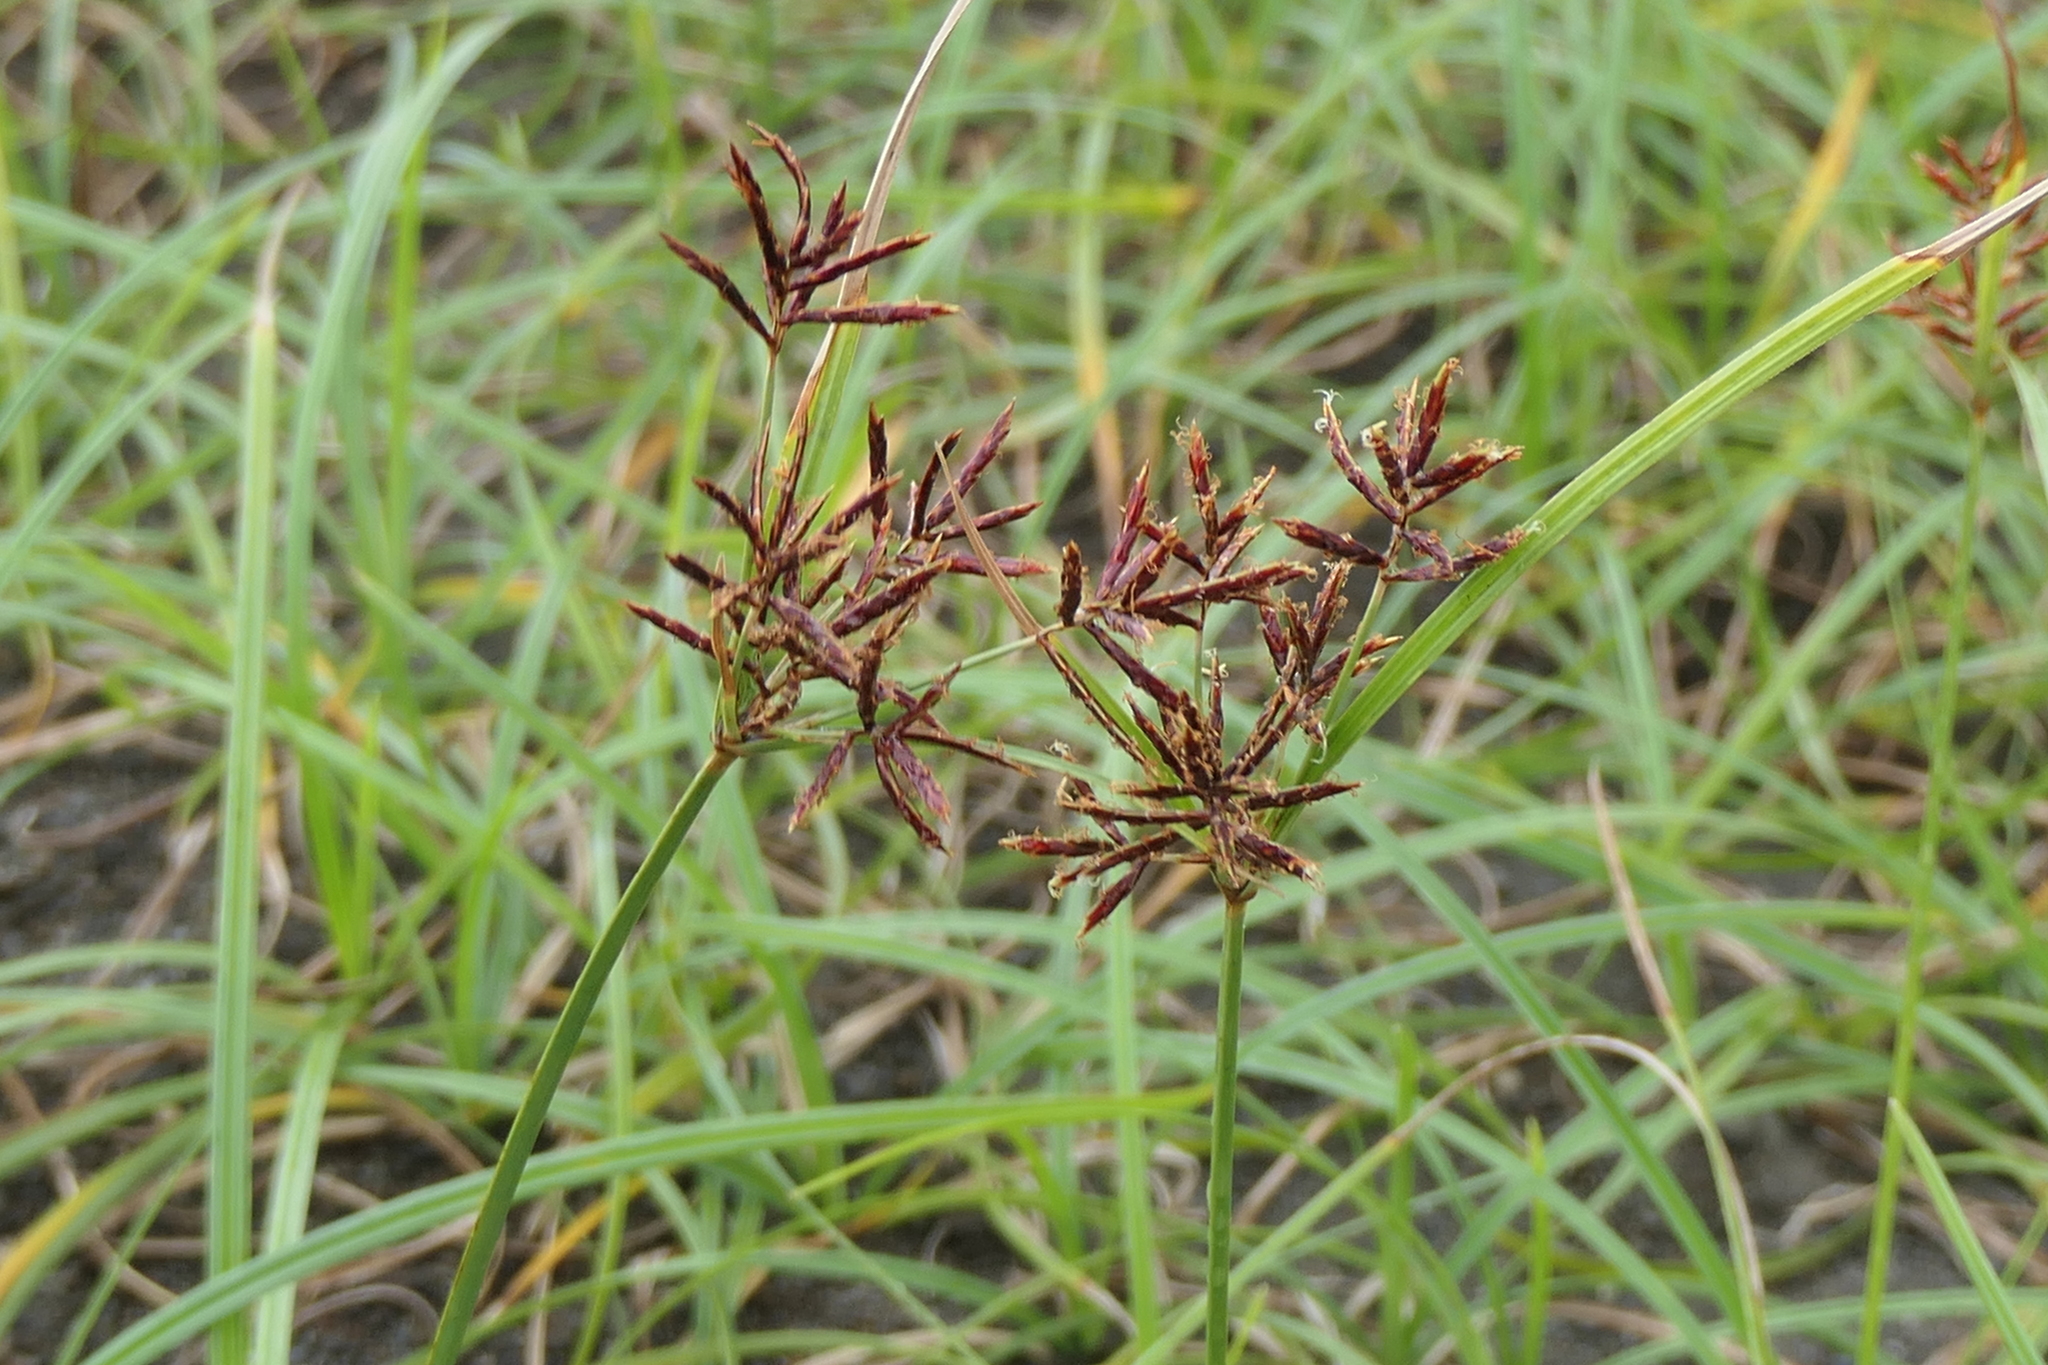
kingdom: Plantae
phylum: Tracheophyta
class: Liliopsida
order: Poales
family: Cyperaceae
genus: Cyperus
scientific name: Cyperus rotundus
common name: Nutgrass
